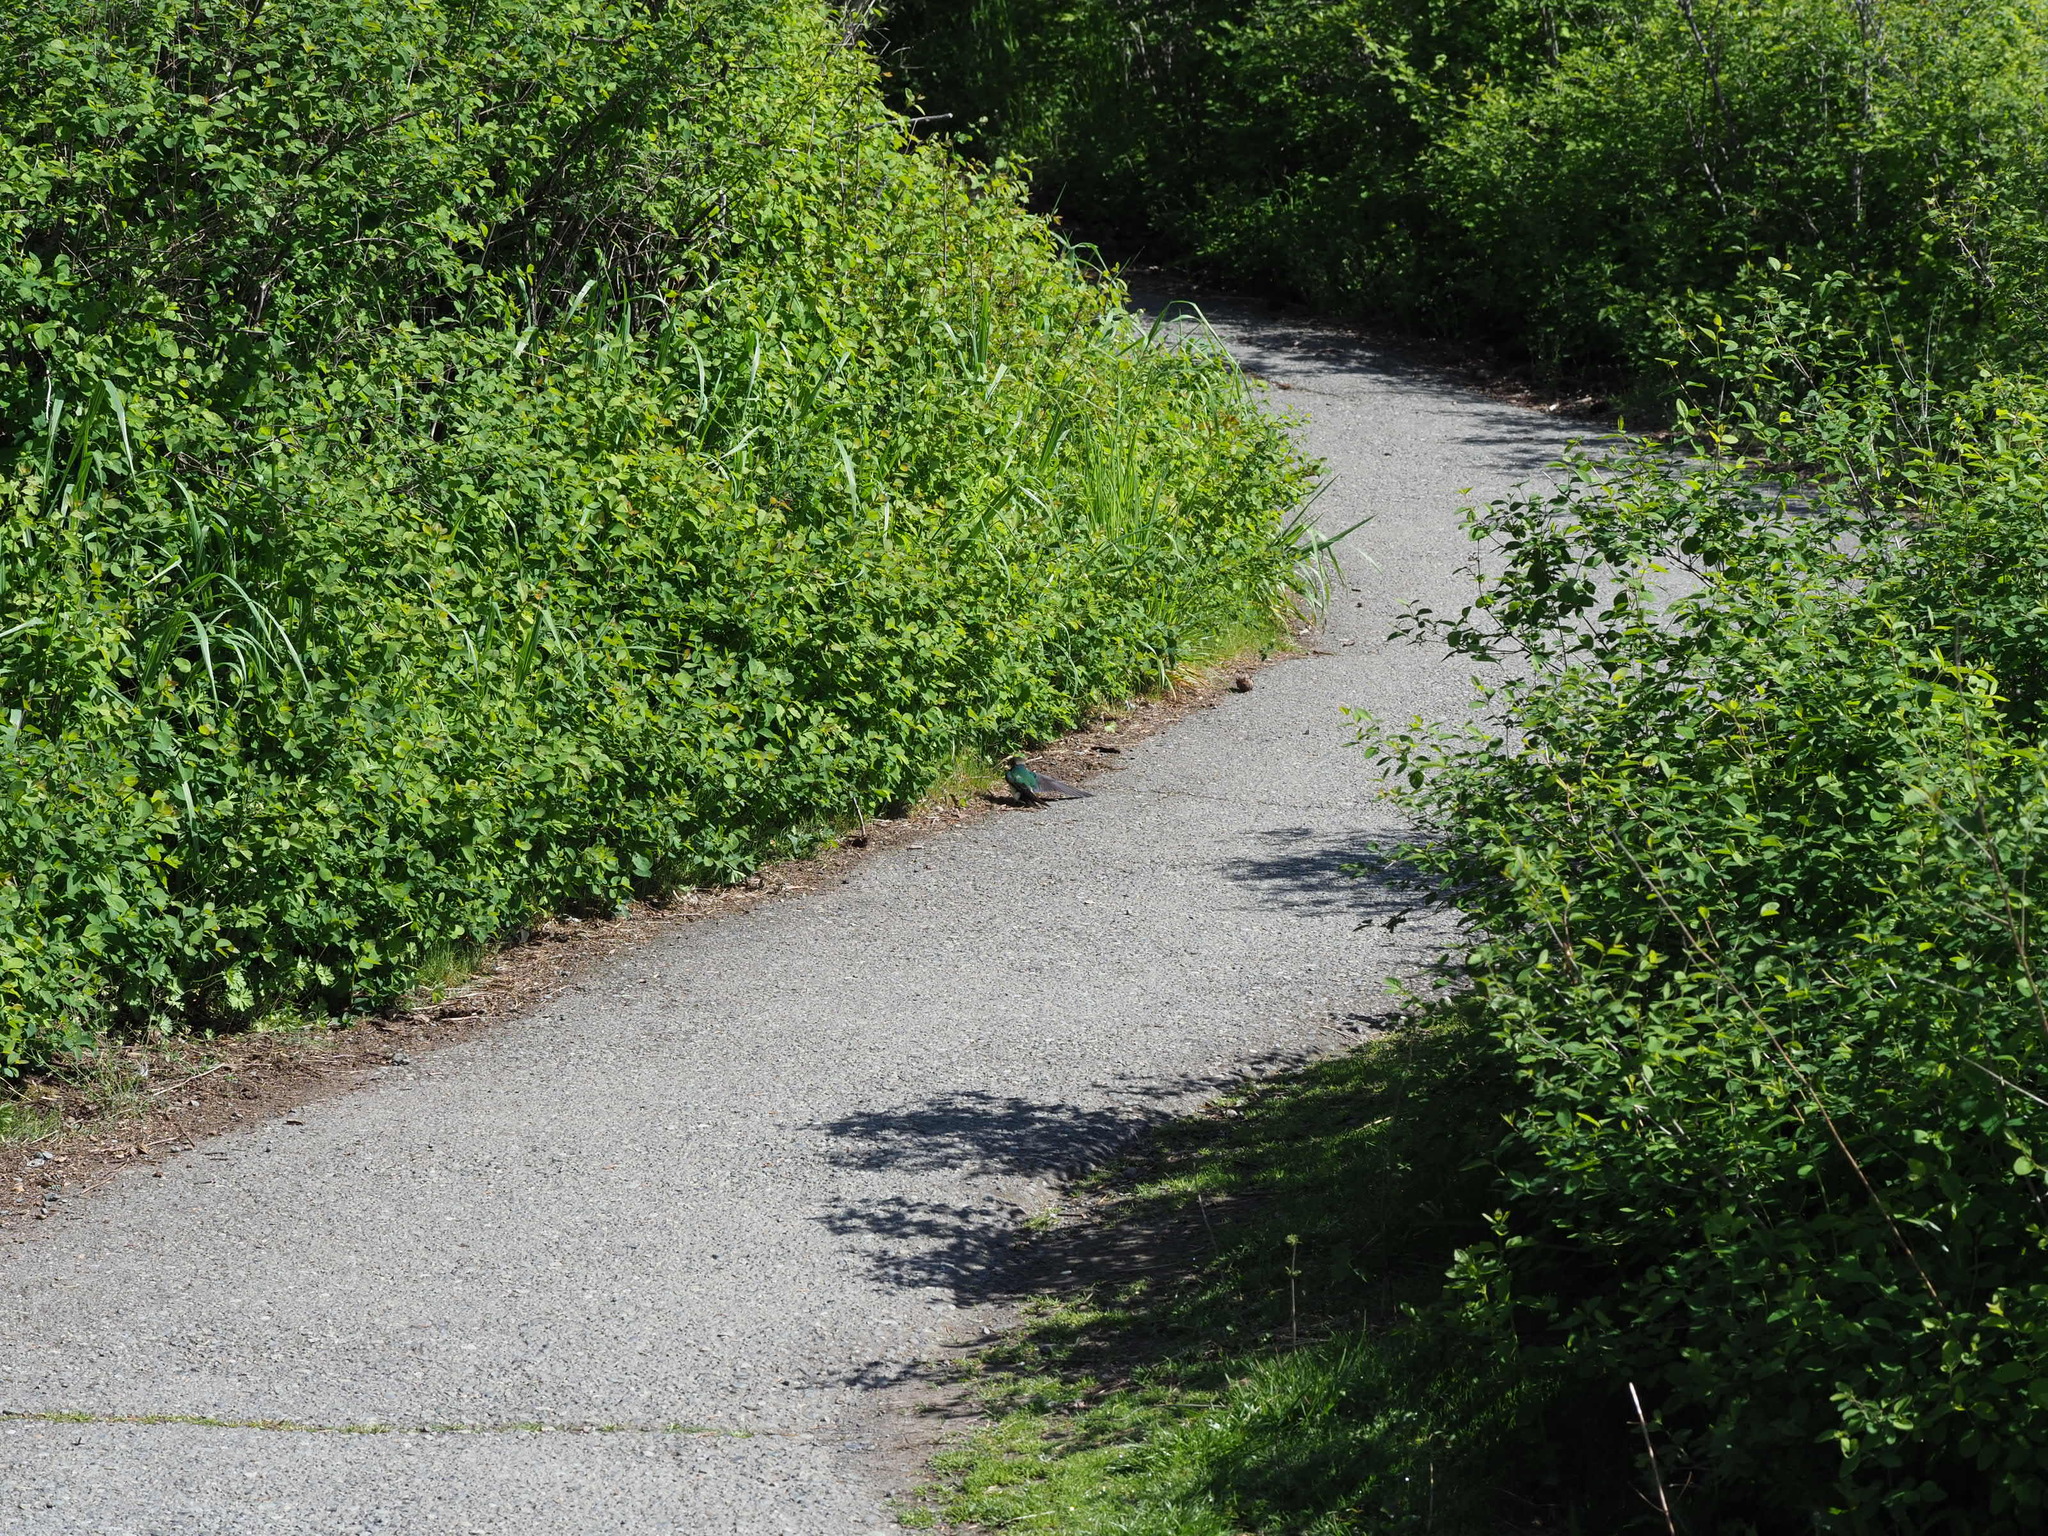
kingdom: Animalia
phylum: Chordata
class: Aves
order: Passeriformes
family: Hirundinidae
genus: Tachycineta
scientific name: Tachycineta thalassina
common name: Violet-green swallow
